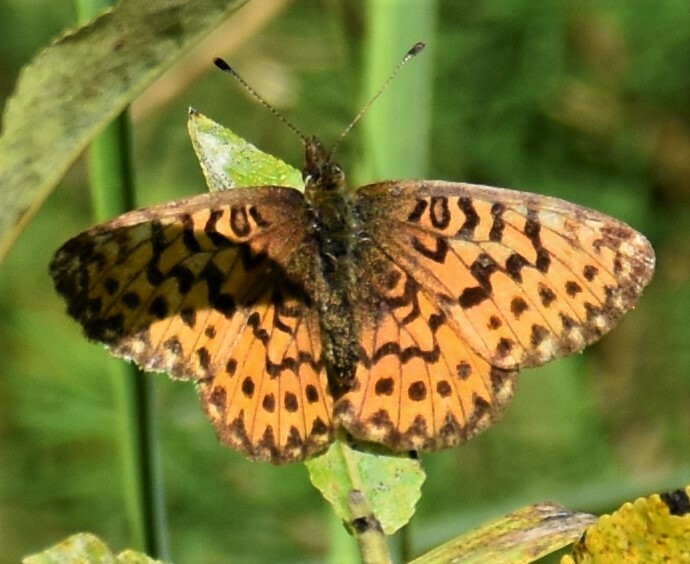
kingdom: Animalia
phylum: Arthropoda
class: Insecta
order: Lepidoptera
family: Nymphalidae
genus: Boloria
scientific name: Boloria chariclea
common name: Arctic fritillary
